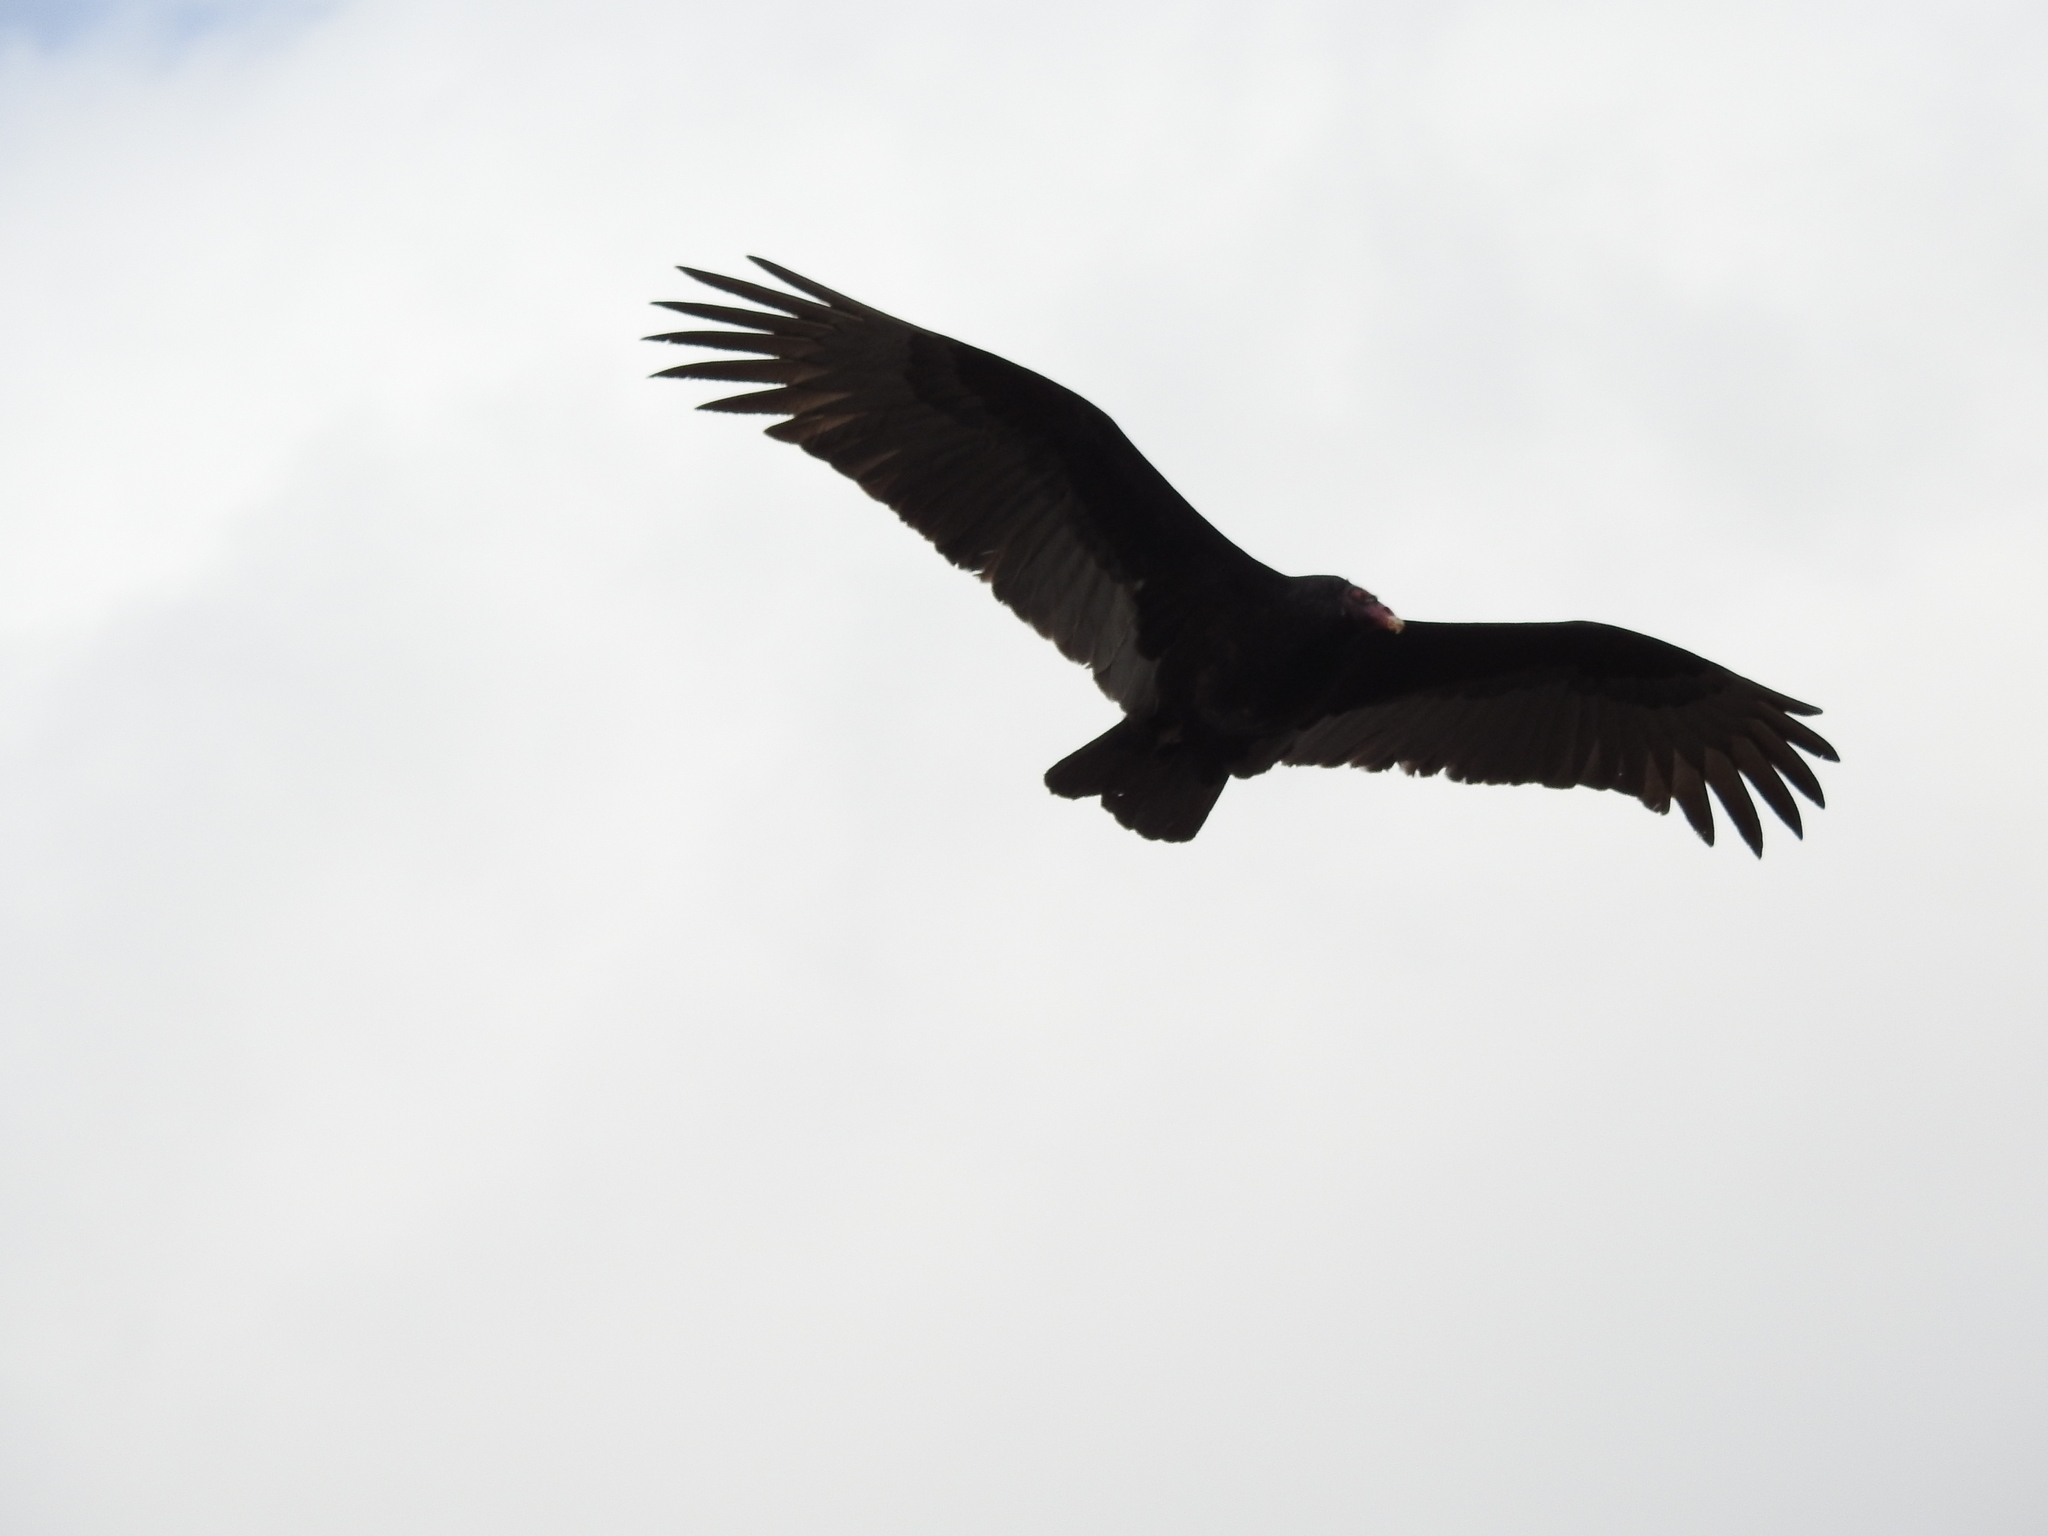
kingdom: Animalia
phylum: Chordata
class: Aves
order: Accipitriformes
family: Cathartidae
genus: Cathartes
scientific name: Cathartes aura
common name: Turkey vulture
